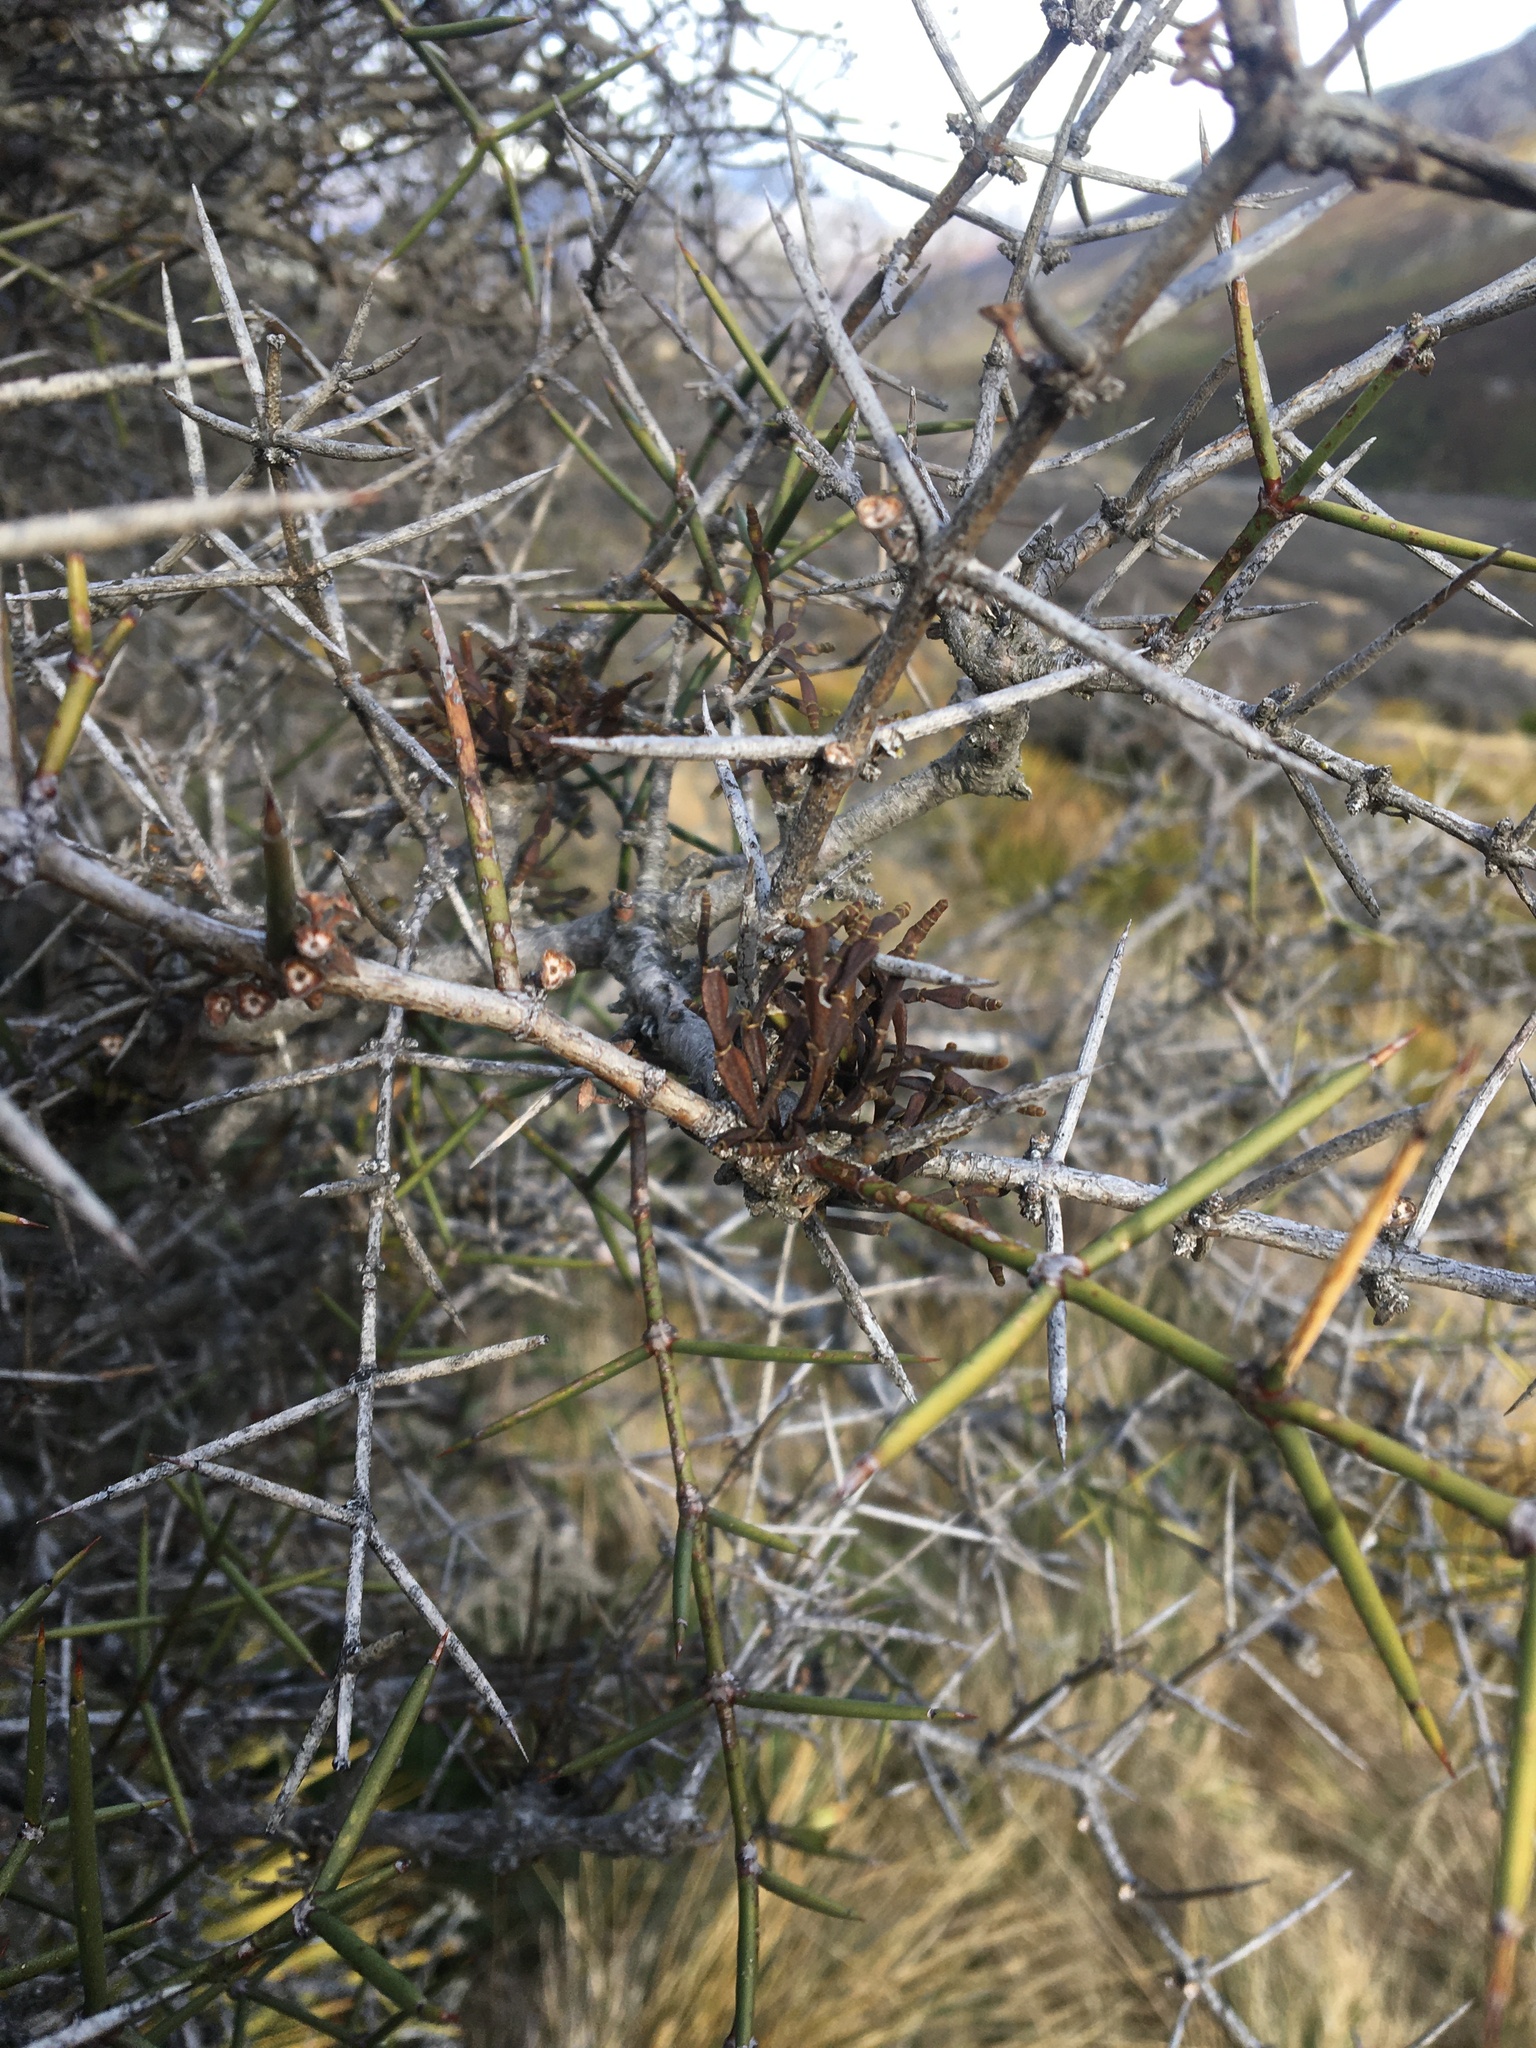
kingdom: Plantae
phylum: Tracheophyta
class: Magnoliopsida
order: Santalales
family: Viscaceae
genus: Korthalsella
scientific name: Korthalsella clavata
